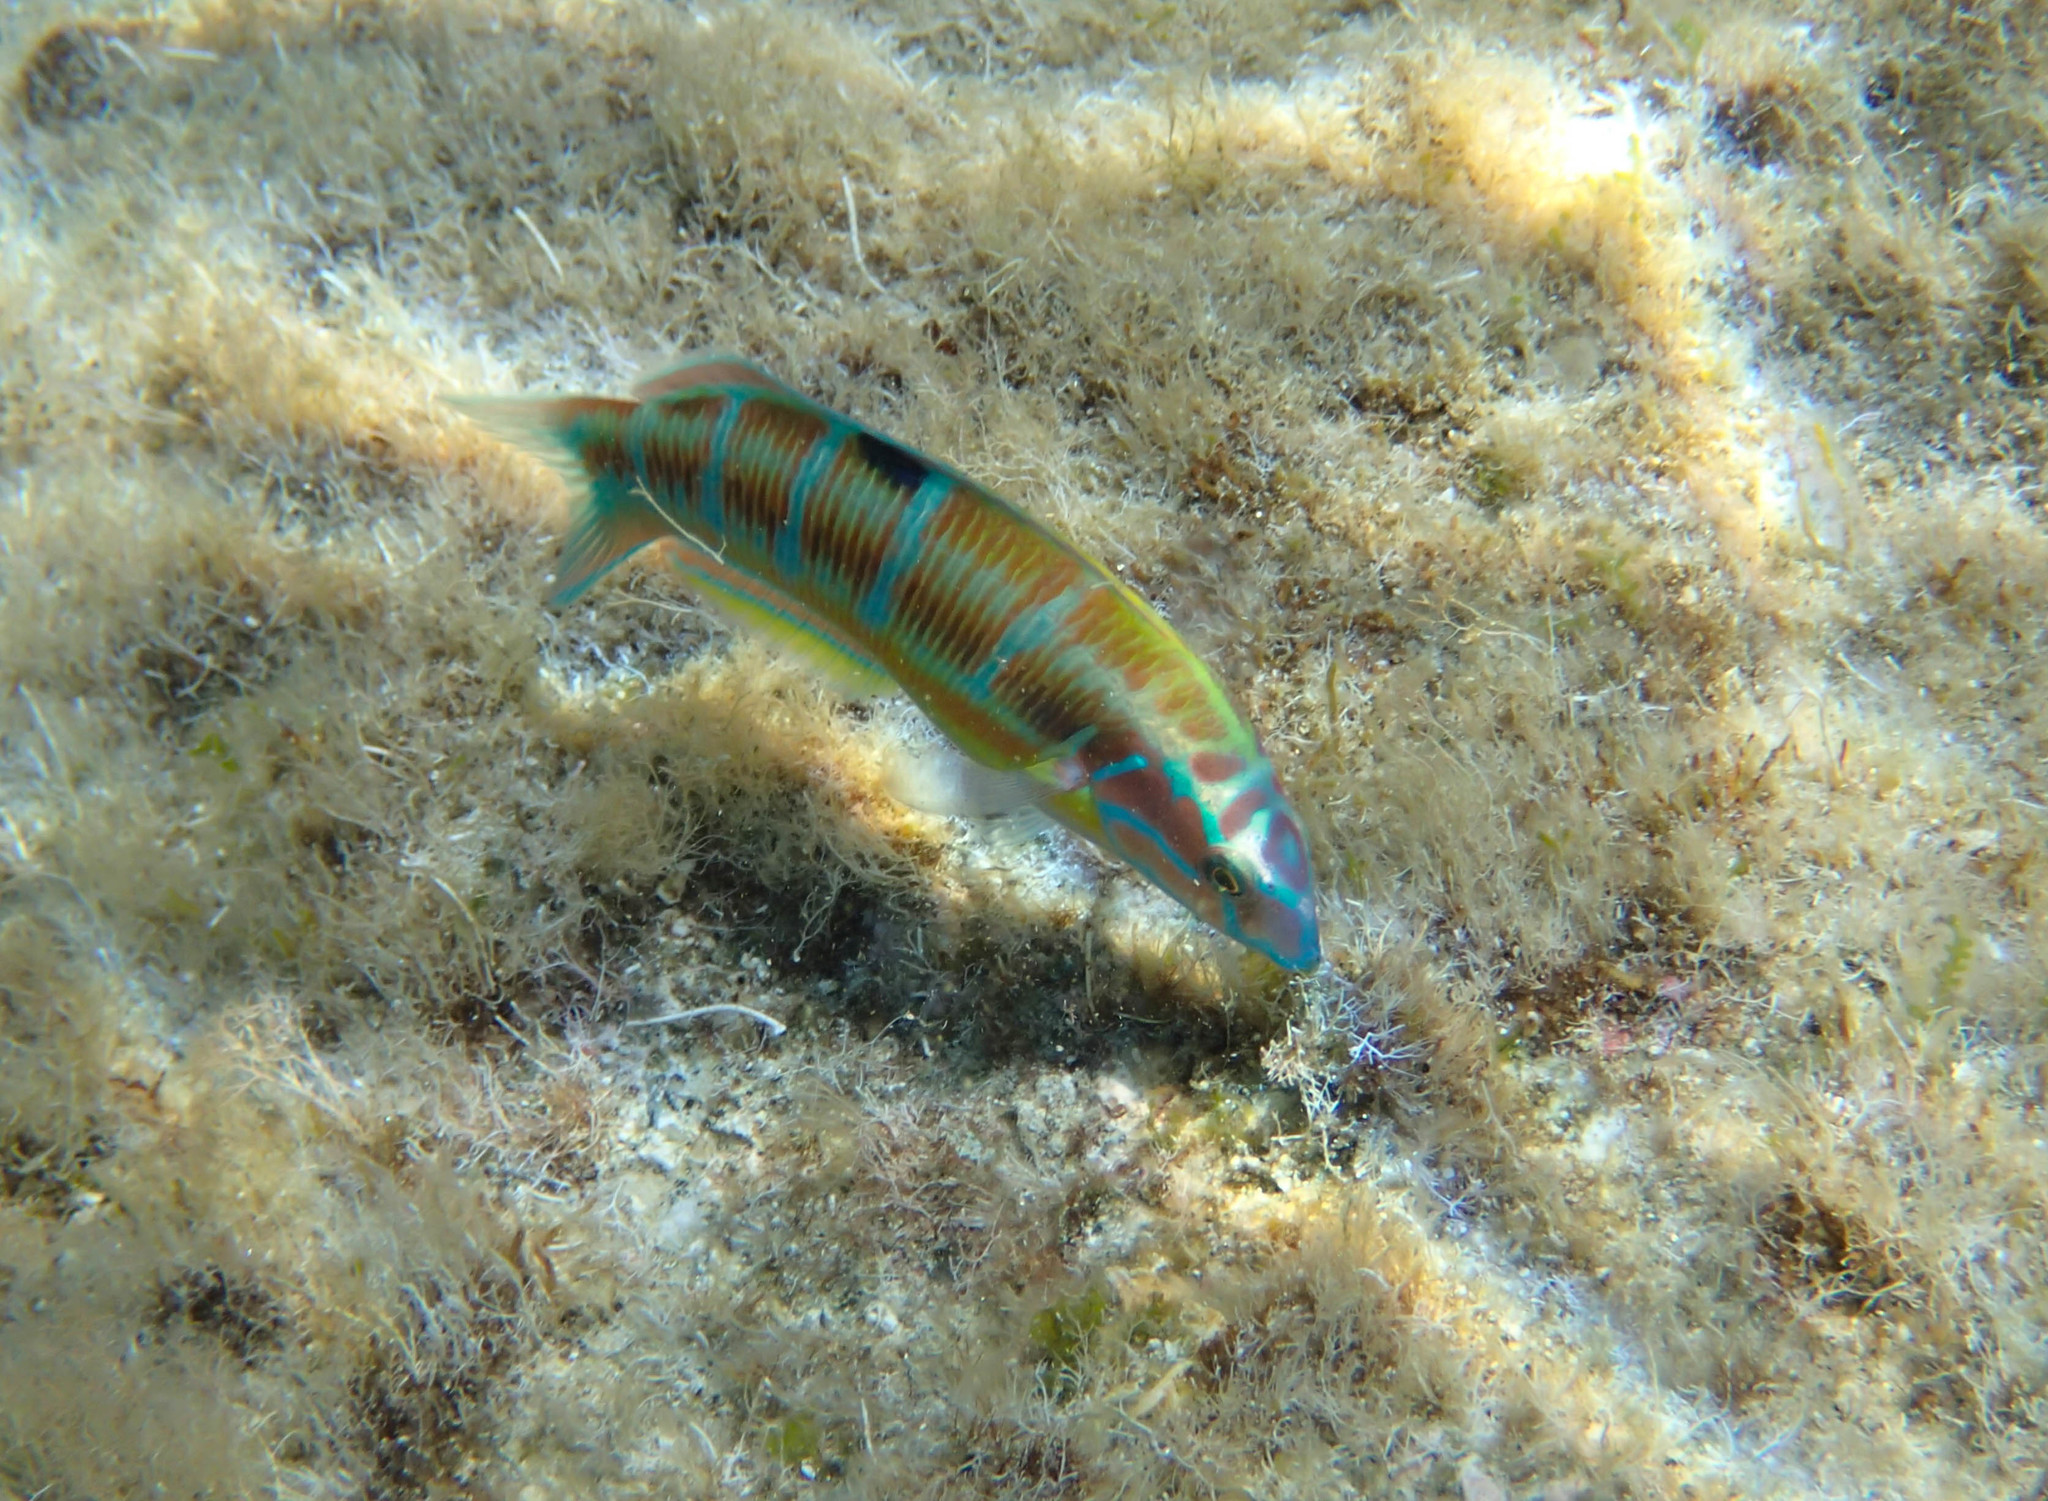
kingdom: Animalia
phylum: Chordata
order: Perciformes
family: Labridae
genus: Thalassoma
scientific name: Thalassoma pavo
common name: Ornate wrasse
